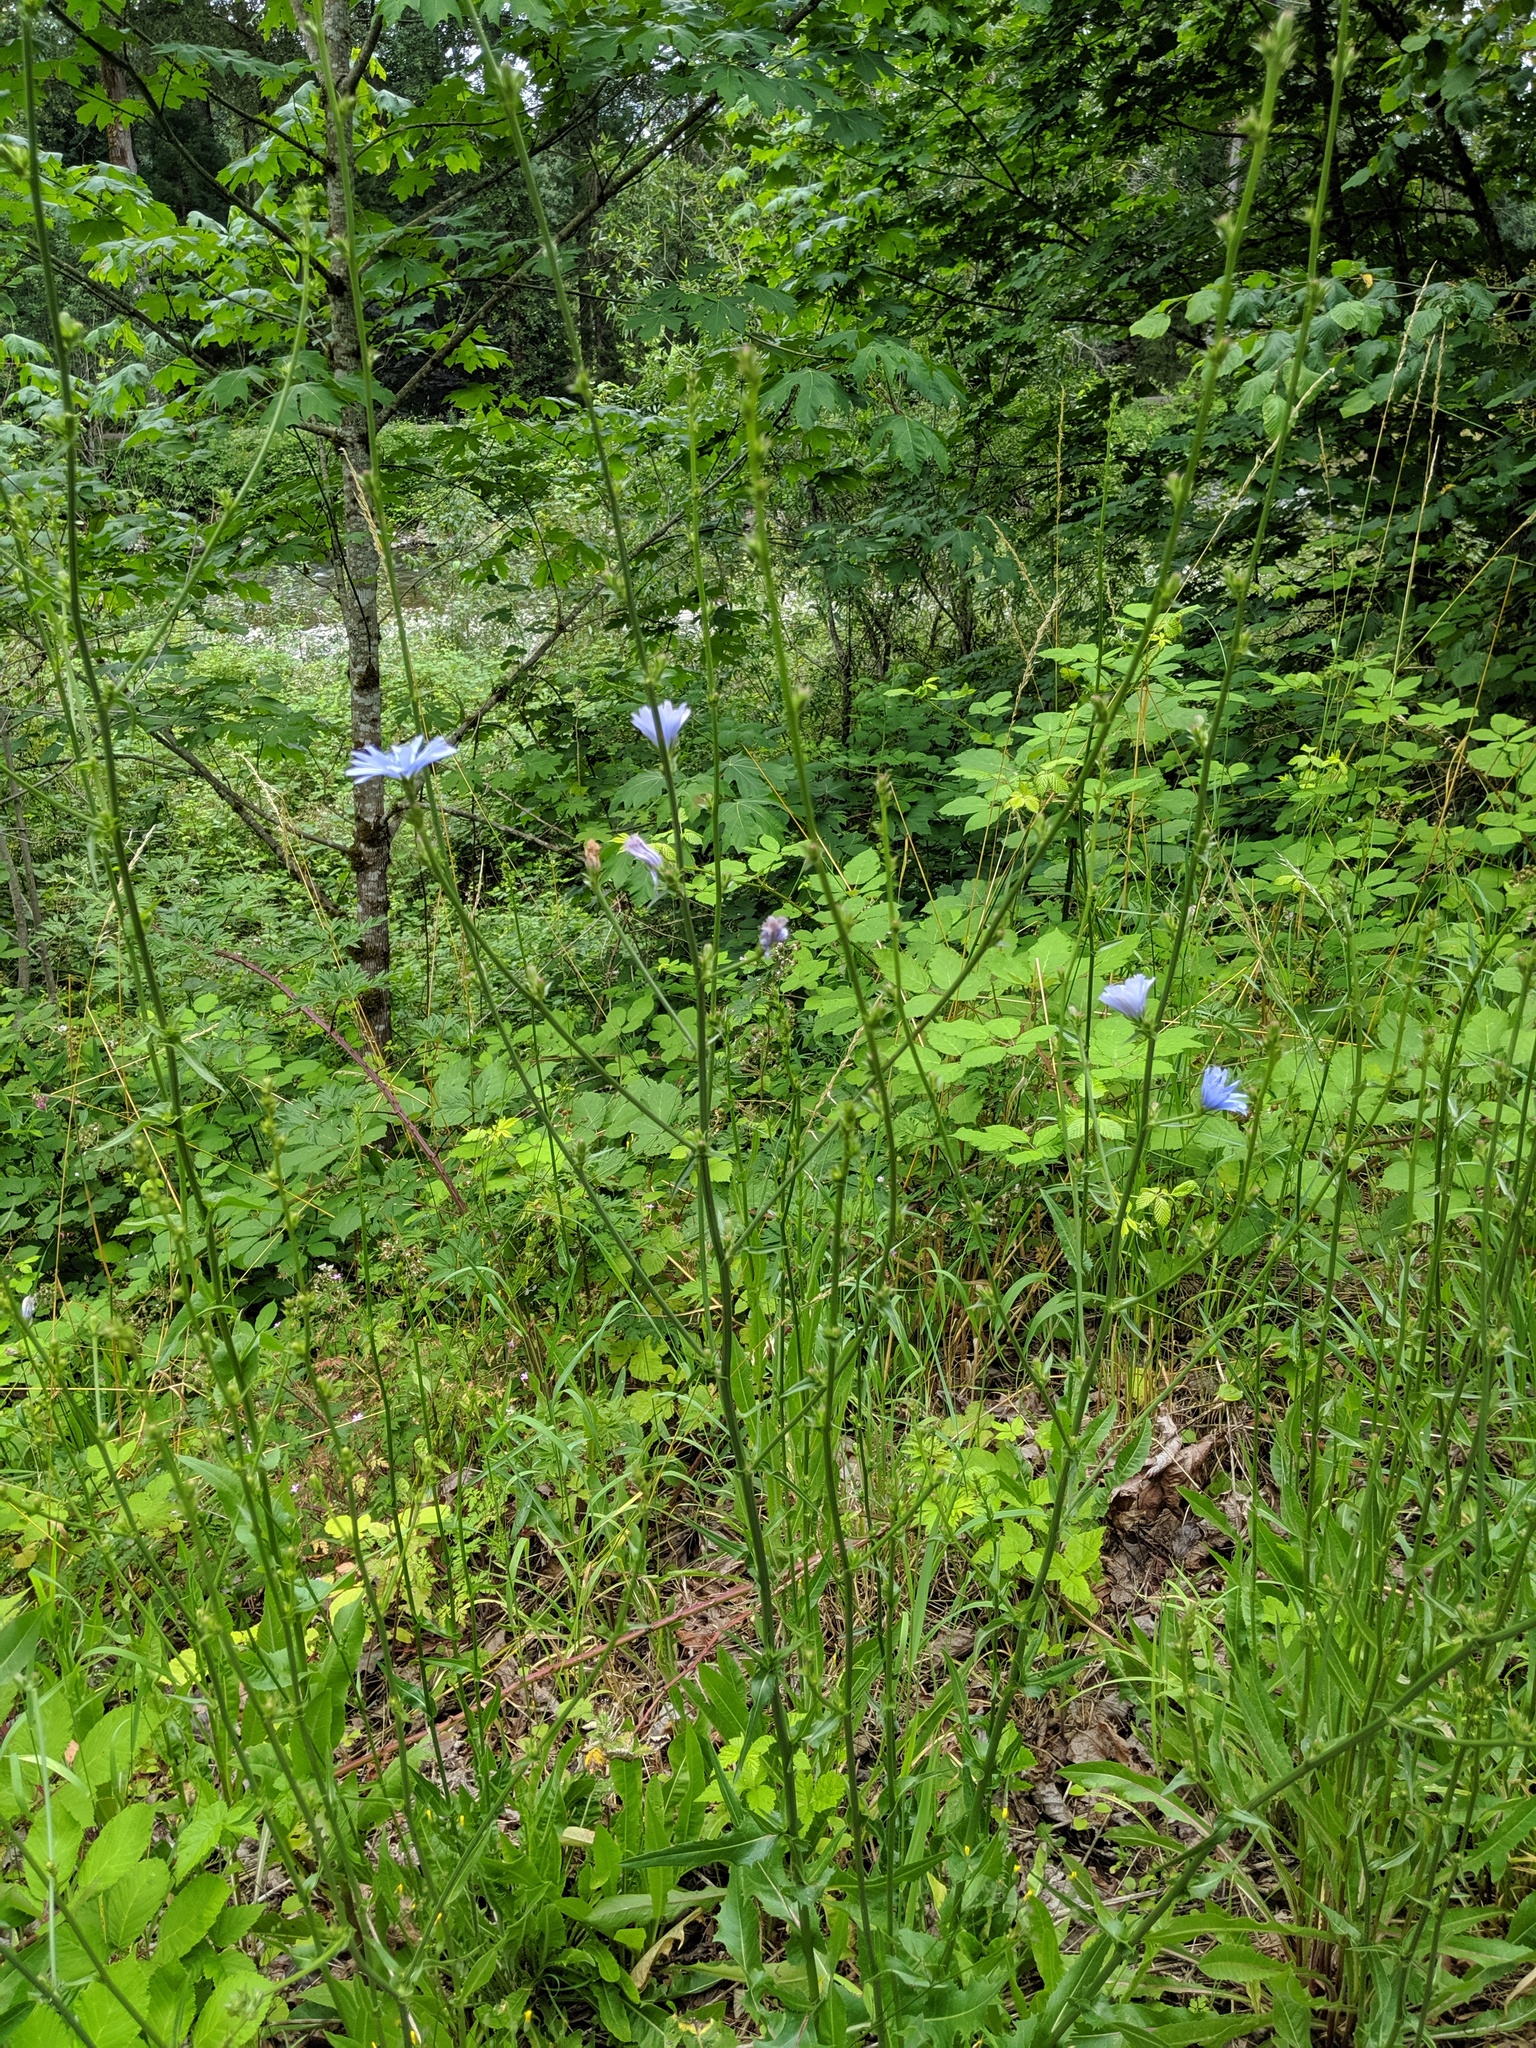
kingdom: Plantae
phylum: Tracheophyta
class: Magnoliopsida
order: Asterales
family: Asteraceae
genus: Cichorium
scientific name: Cichorium intybus
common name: Chicory
